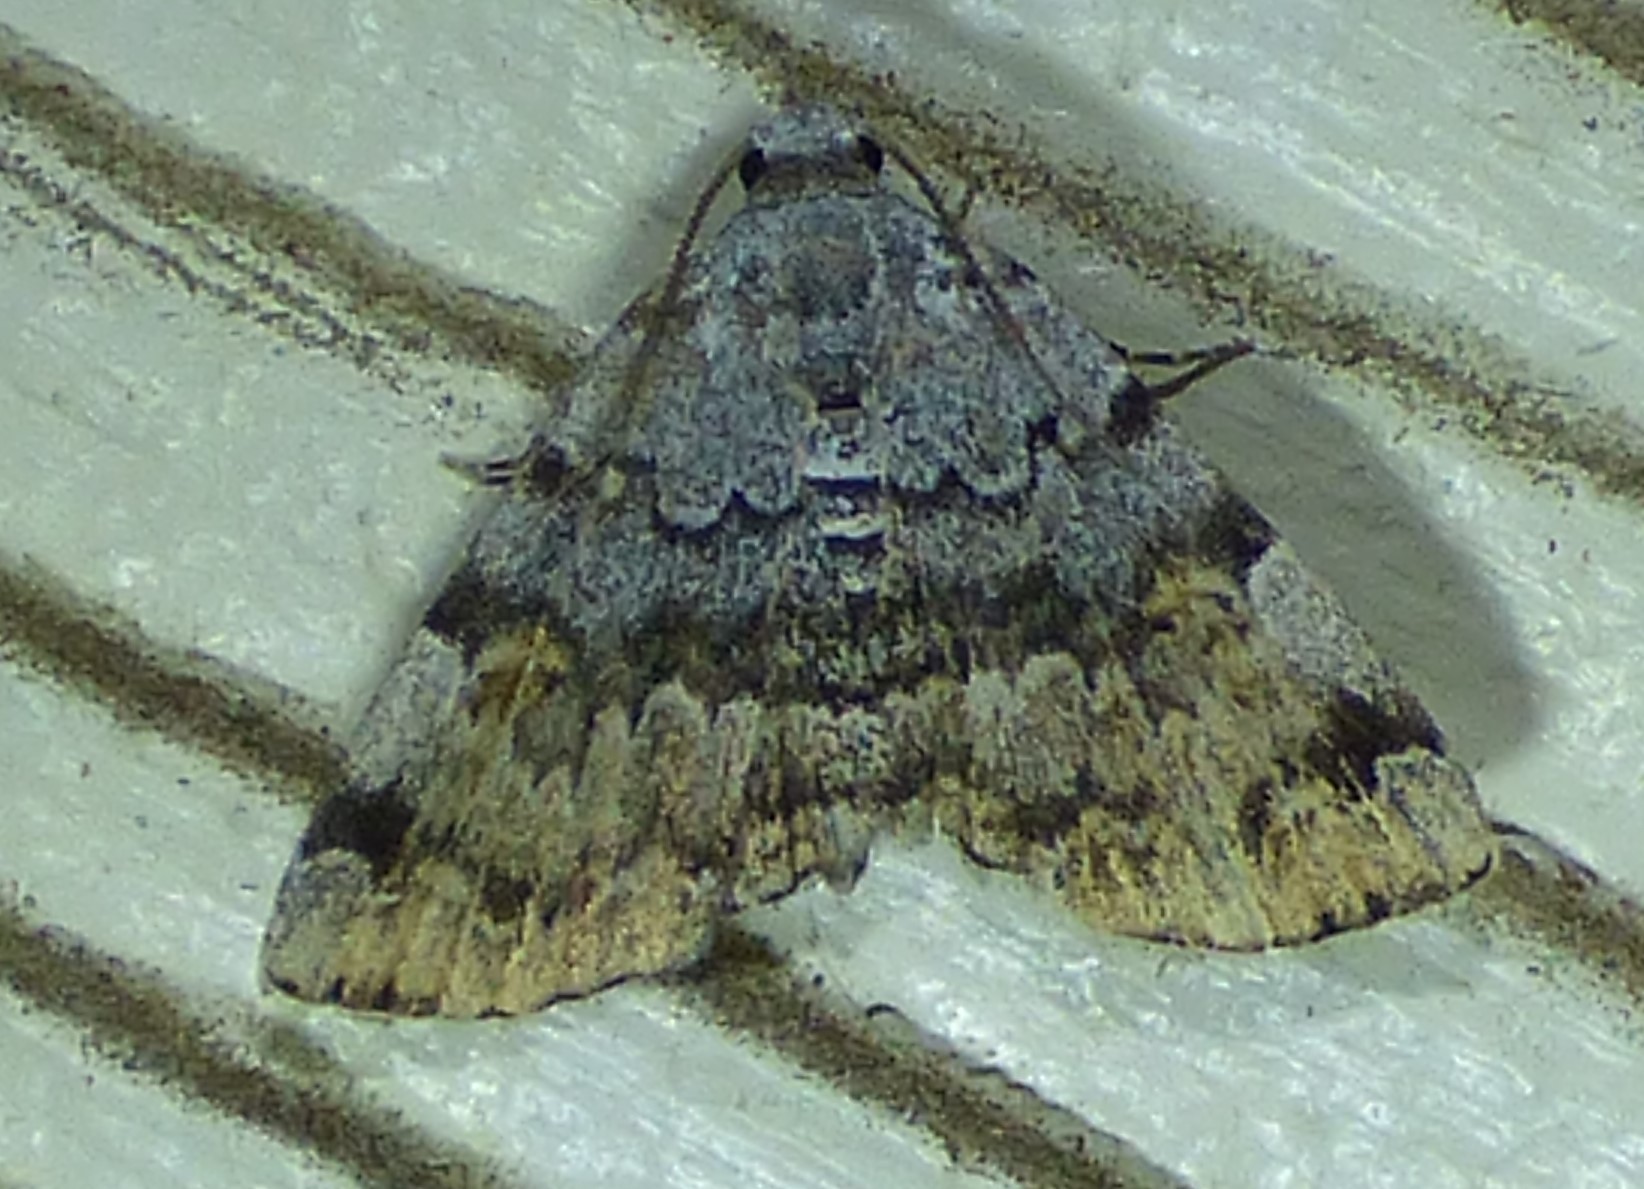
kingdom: Animalia
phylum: Arthropoda
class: Insecta
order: Lepidoptera
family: Erebidae
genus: Idia
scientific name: Idia americalis
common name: American idia moth
